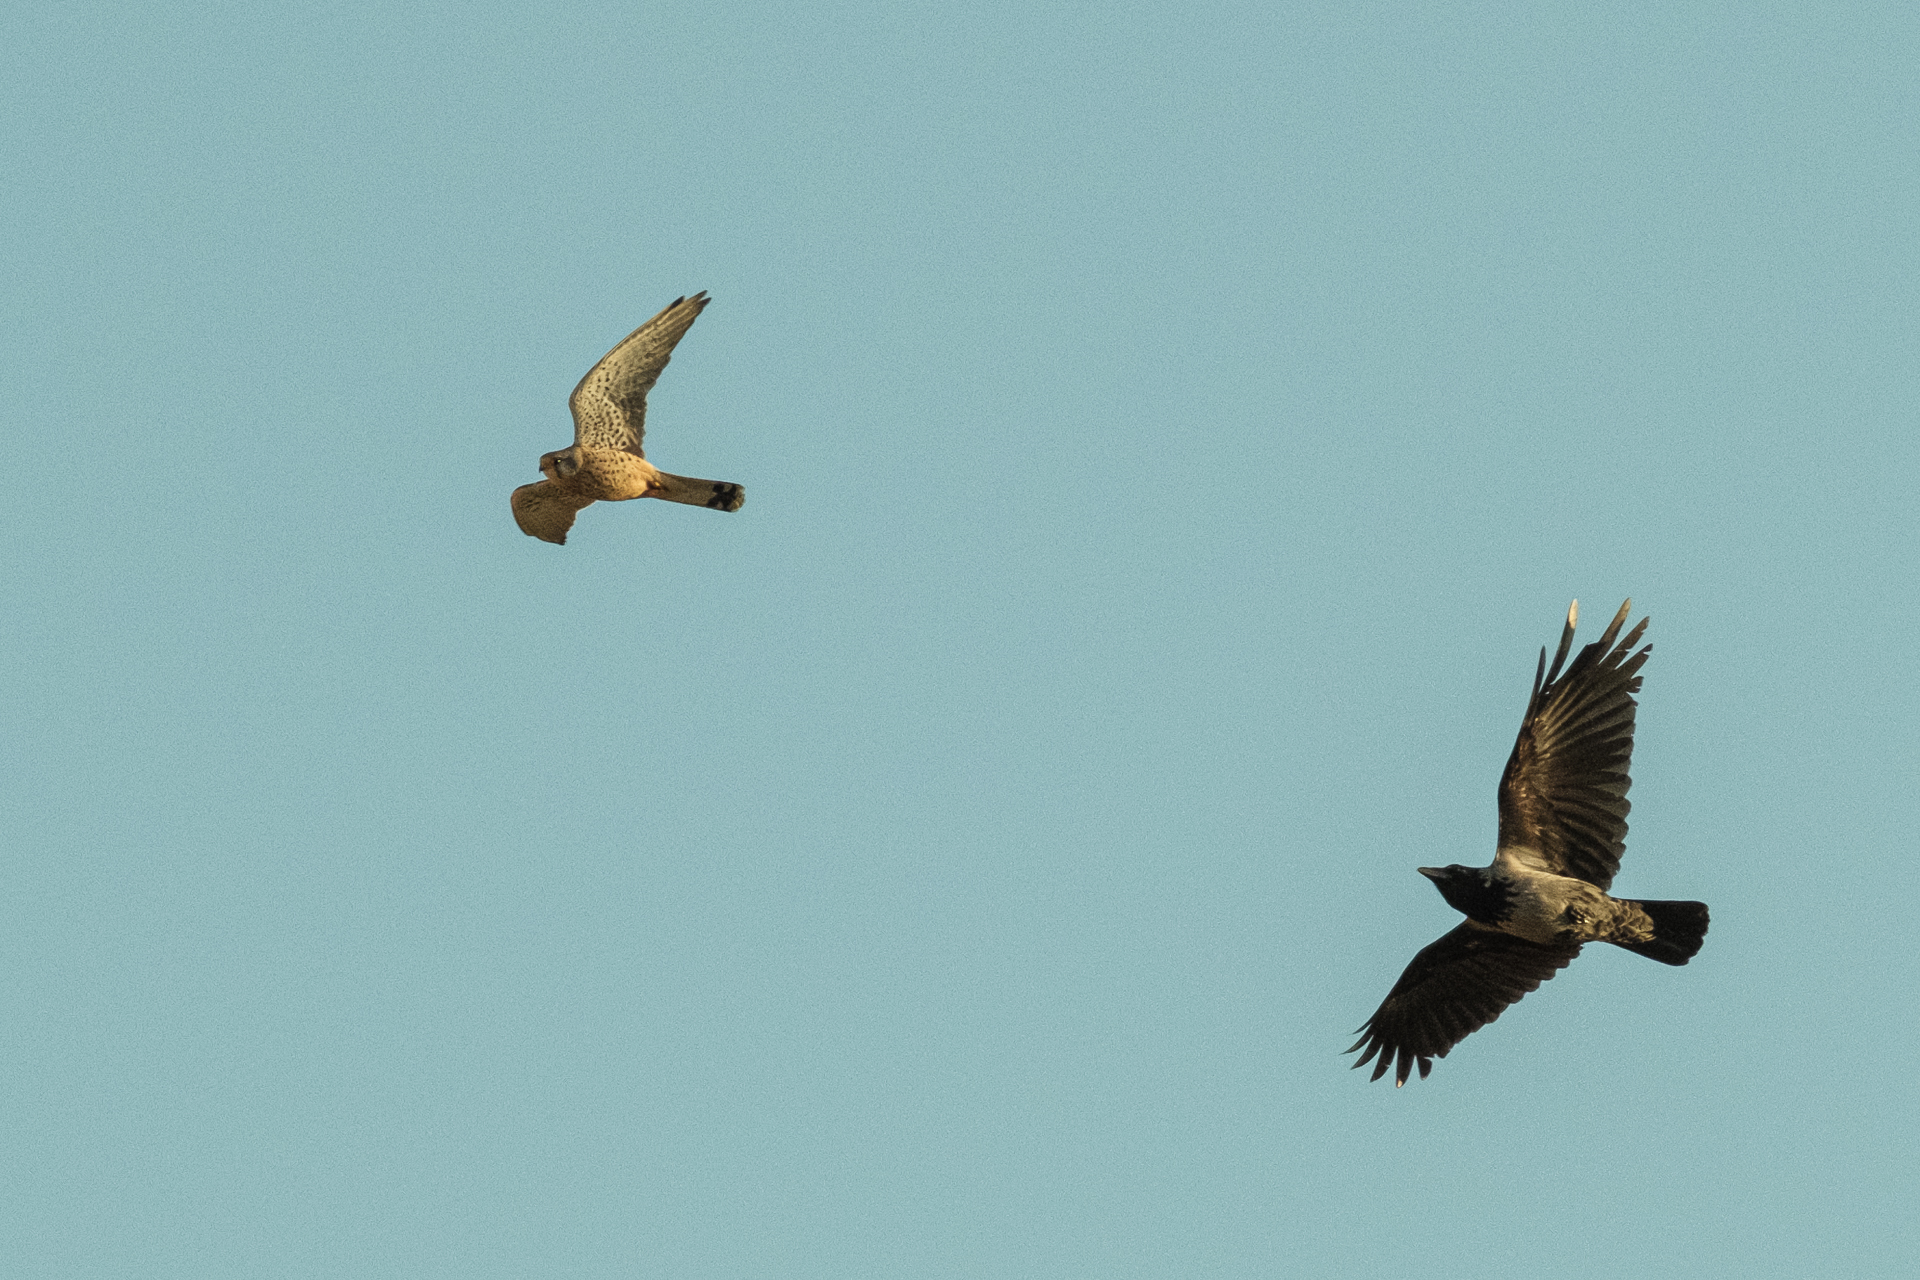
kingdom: Animalia
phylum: Chordata
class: Aves
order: Passeriformes
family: Corvidae
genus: Corvus
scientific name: Corvus
